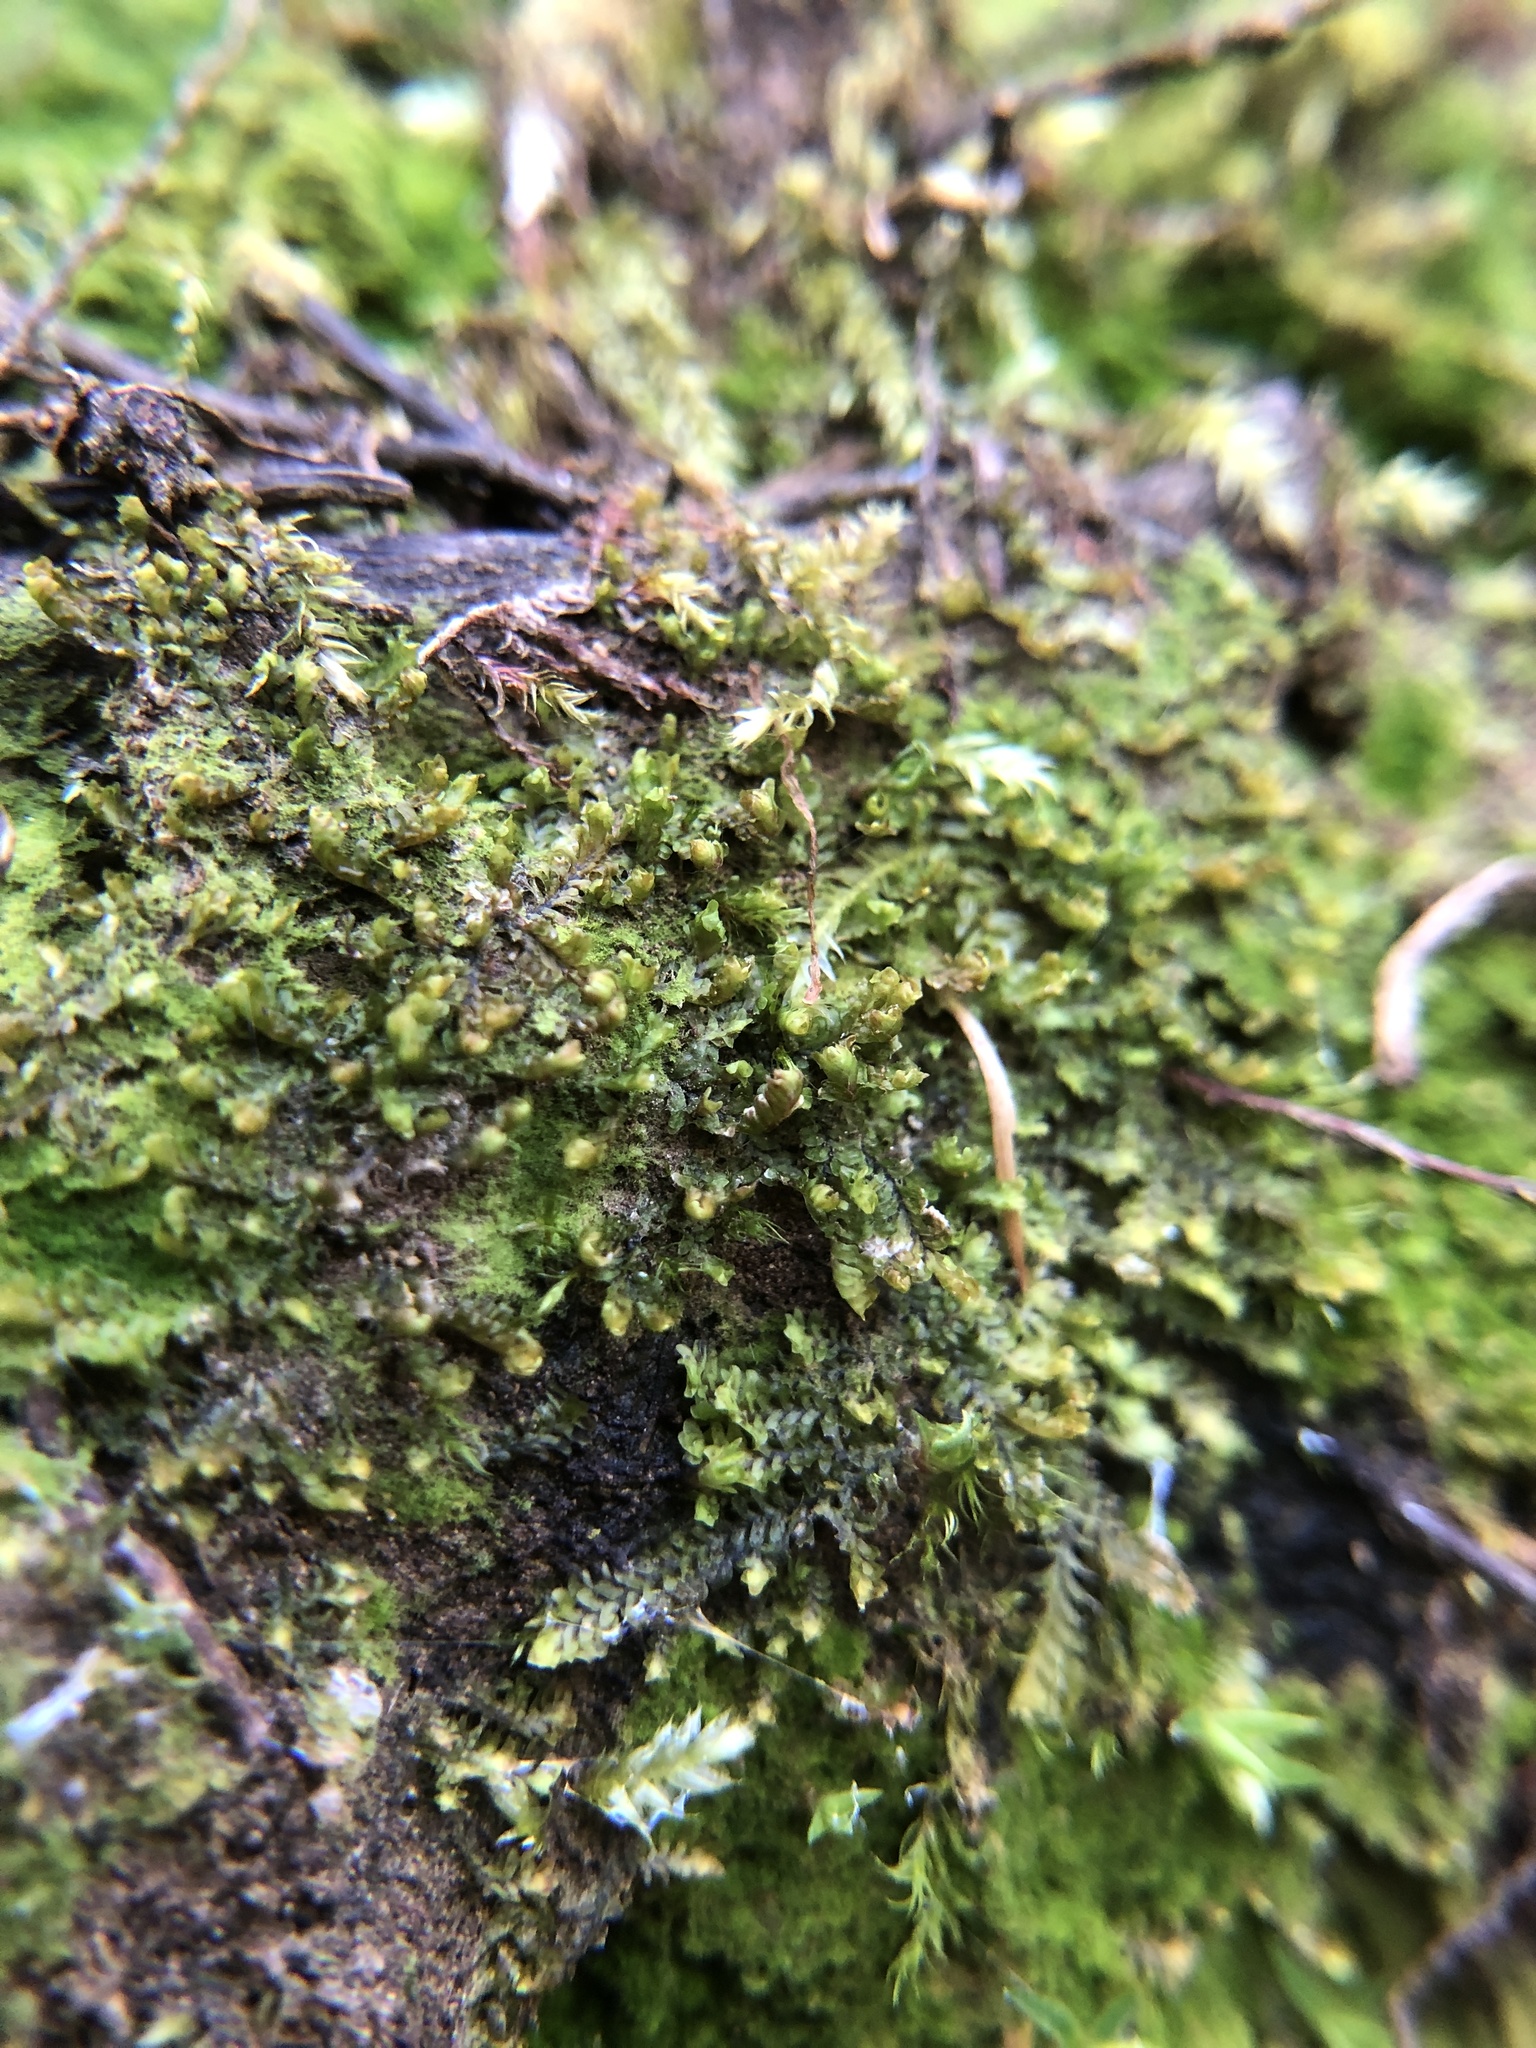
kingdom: Plantae
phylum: Marchantiophyta
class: Jungermanniopsida
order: Jungermanniales
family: Scapaniaceae
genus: Diplophyllum
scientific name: Diplophyllum albicans
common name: White earwort
